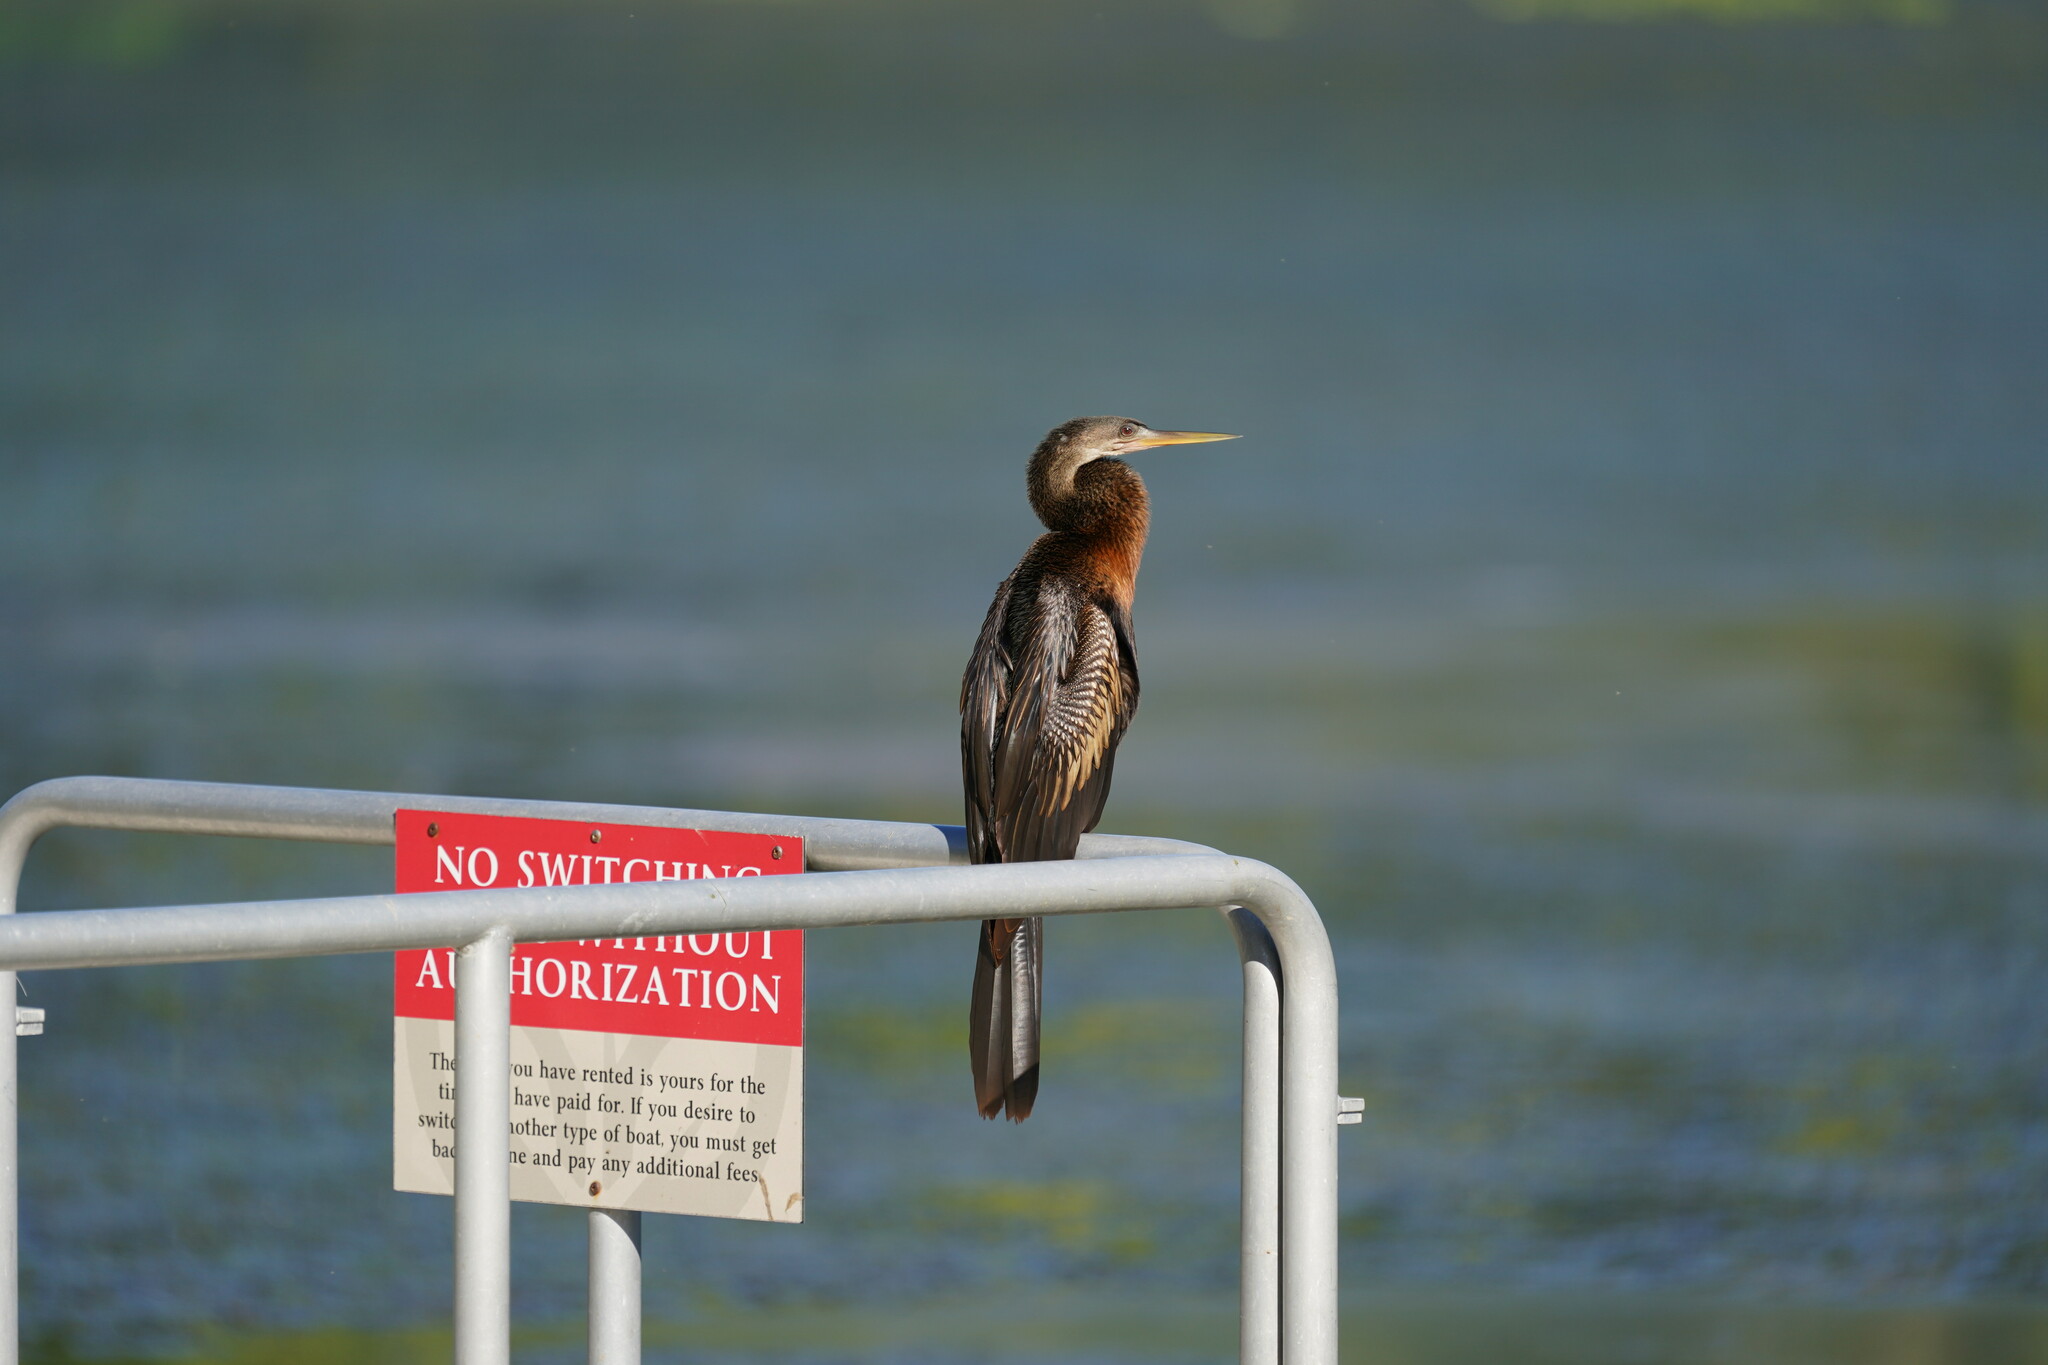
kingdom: Animalia
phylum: Chordata
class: Aves
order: Suliformes
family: Anhingidae
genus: Anhinga
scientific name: Anhinga anhinga
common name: Anhinga
